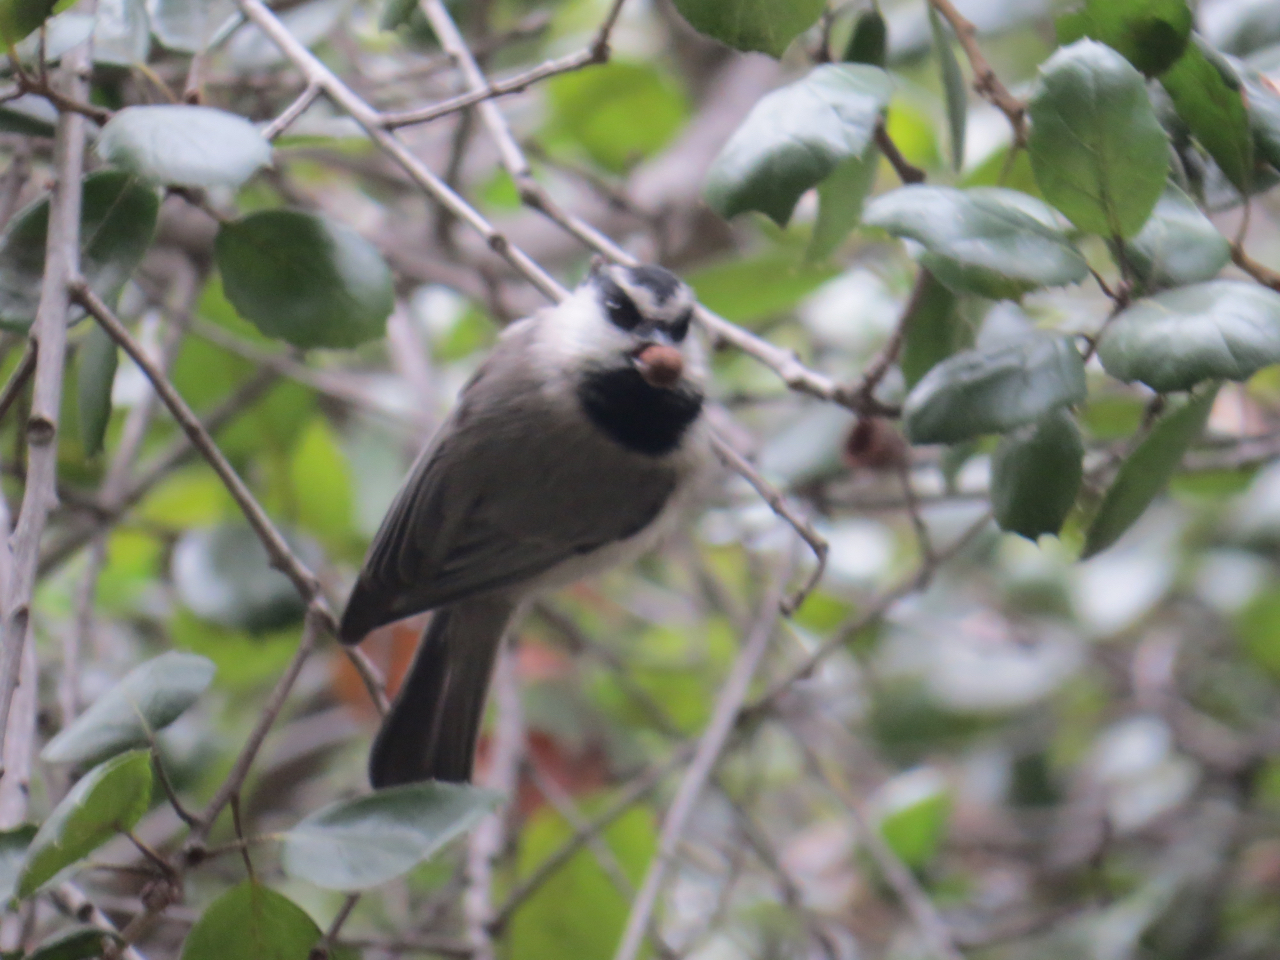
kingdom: Animalia
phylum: Chordata
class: Aves
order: Passeriformes
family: Paridae
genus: Poecile
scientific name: Poecile gambeli
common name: Mountain chickadee
